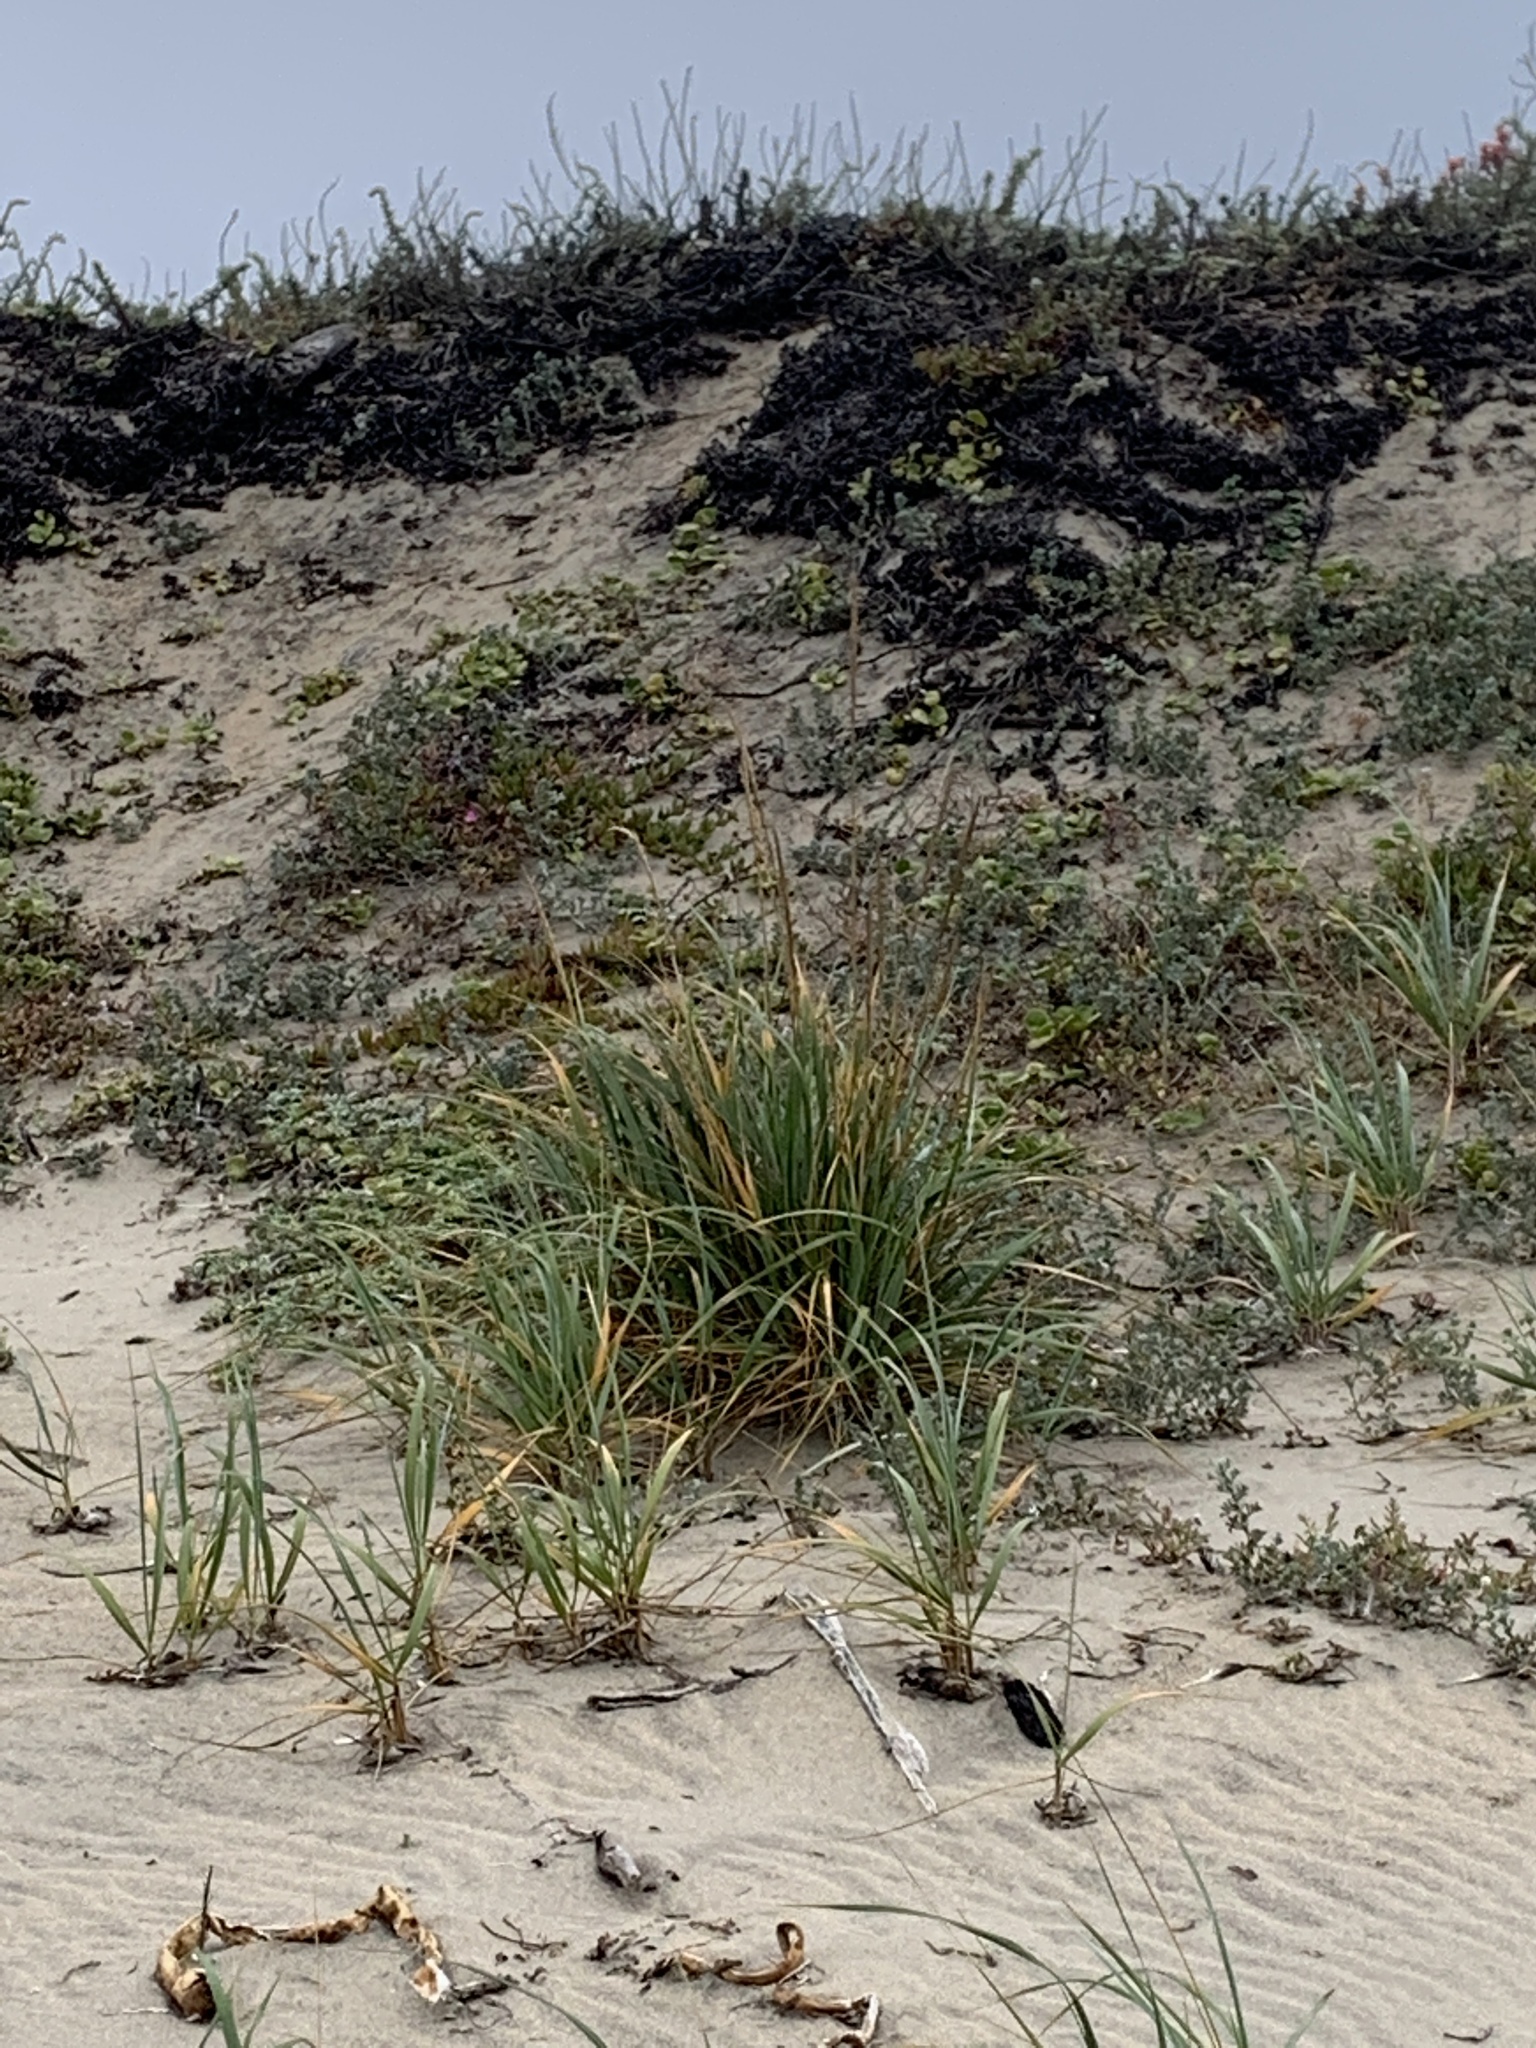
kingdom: Plantae
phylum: Tracheophyta
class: Liliopsida
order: Poales
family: Poaceae
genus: Leymus
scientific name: Leymus mollis
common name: American dune grass
